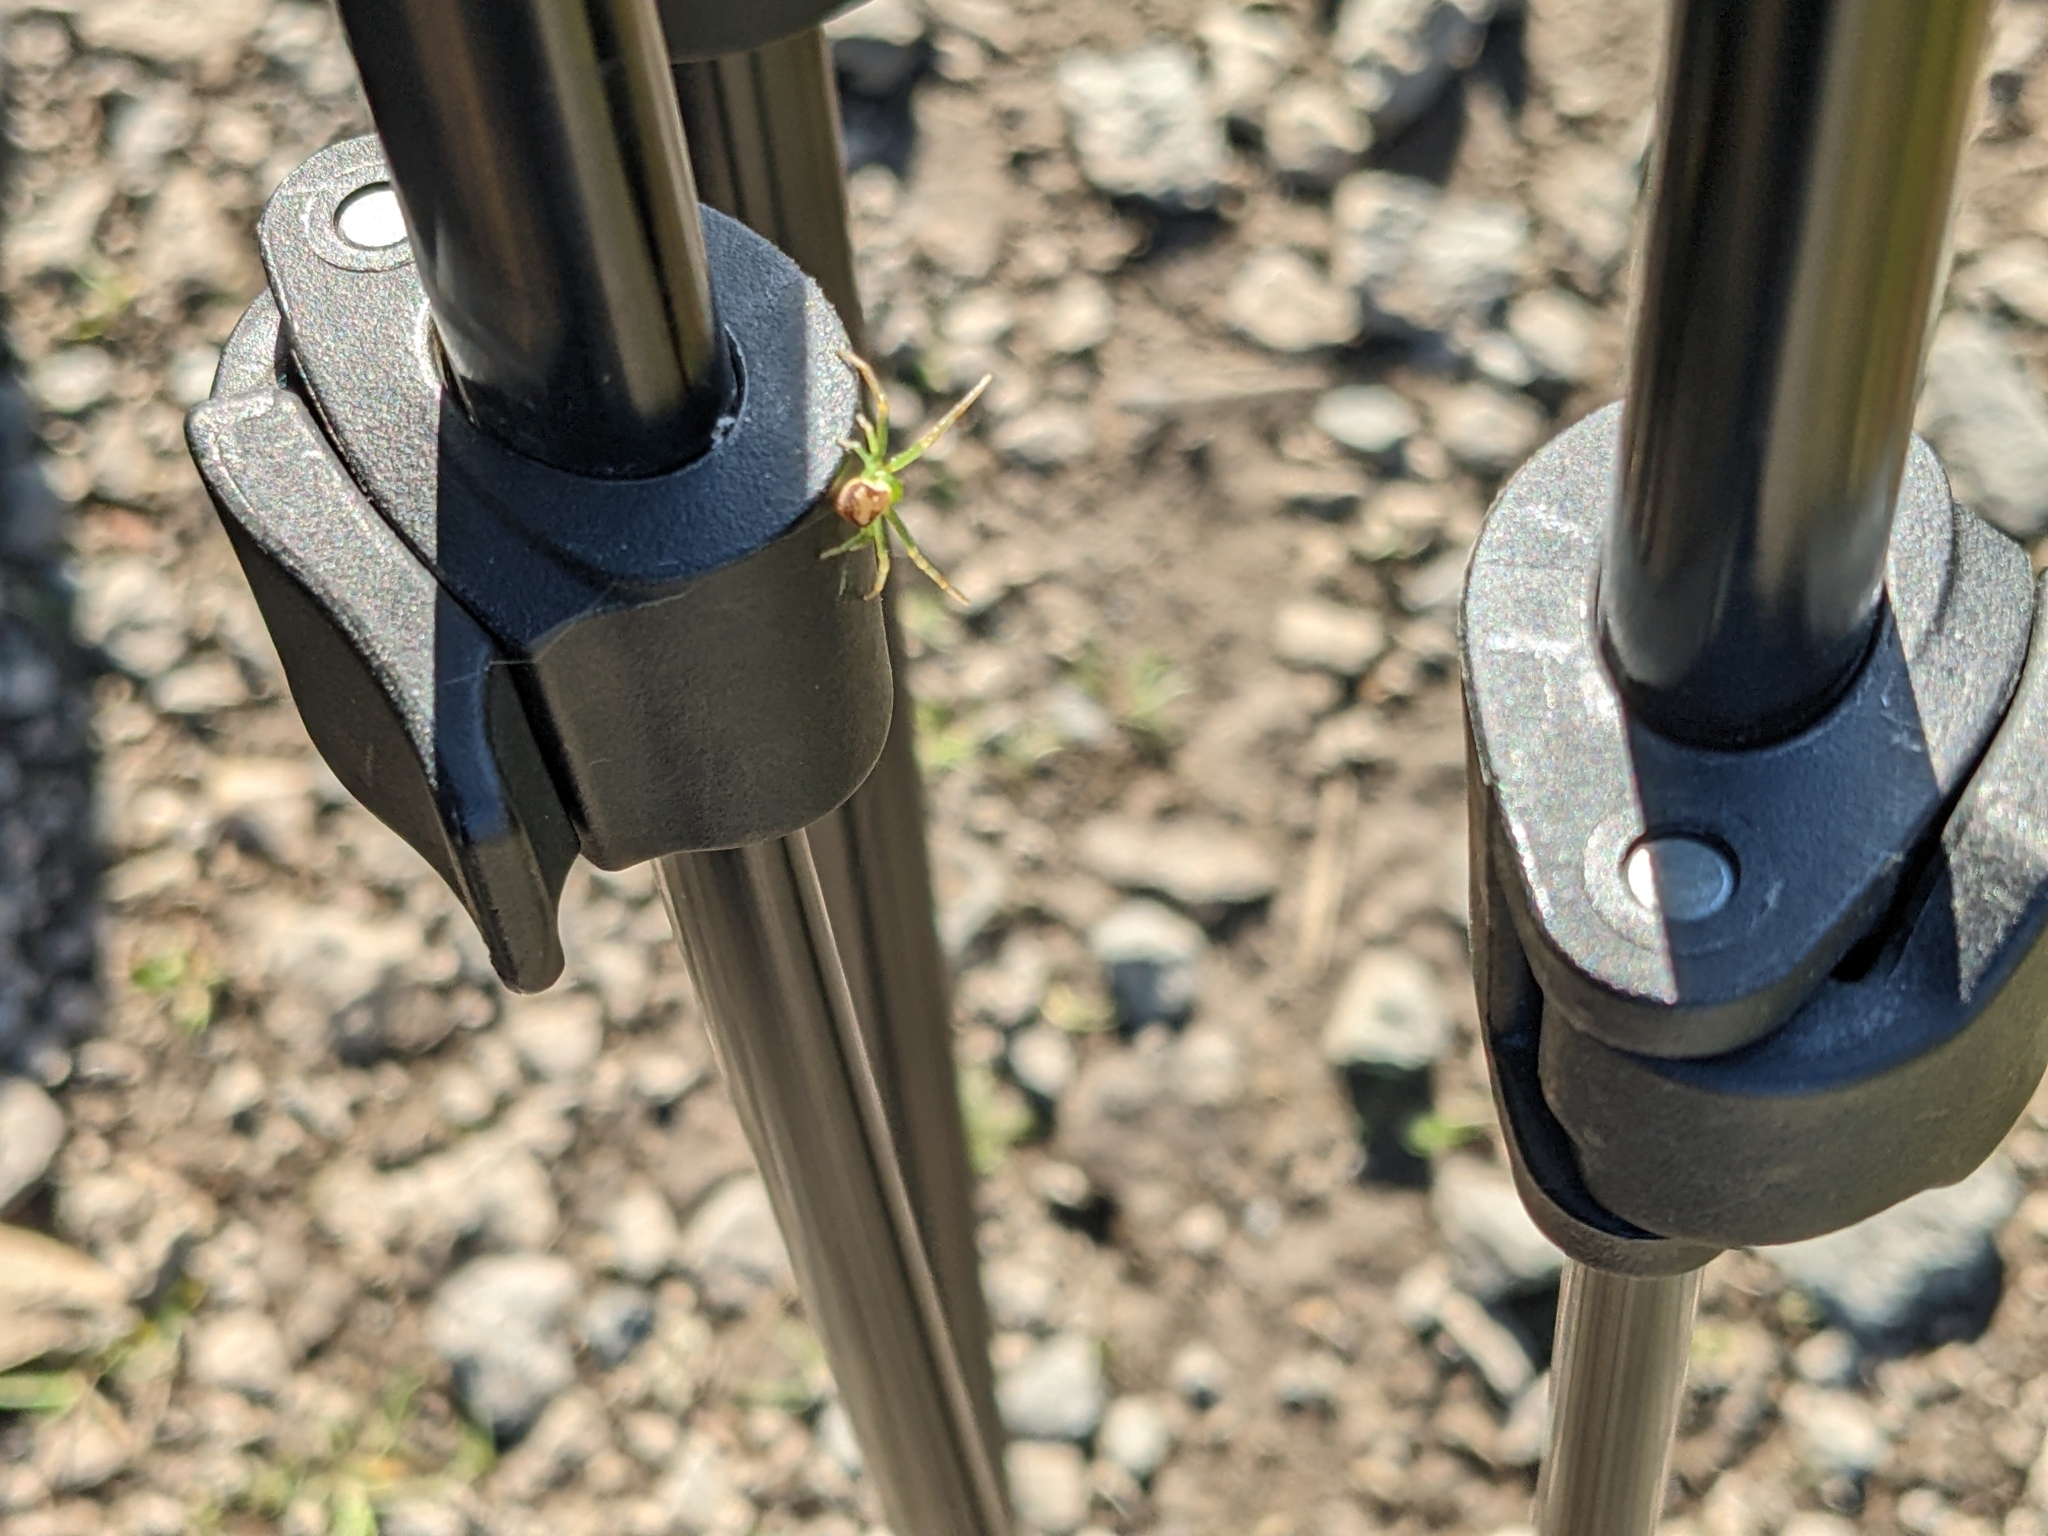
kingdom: Animalia
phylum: Arthropoda
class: Arachnida
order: Araneae
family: Thomisidae
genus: Ebrechtella
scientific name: Ebrechtella tricuspidata
